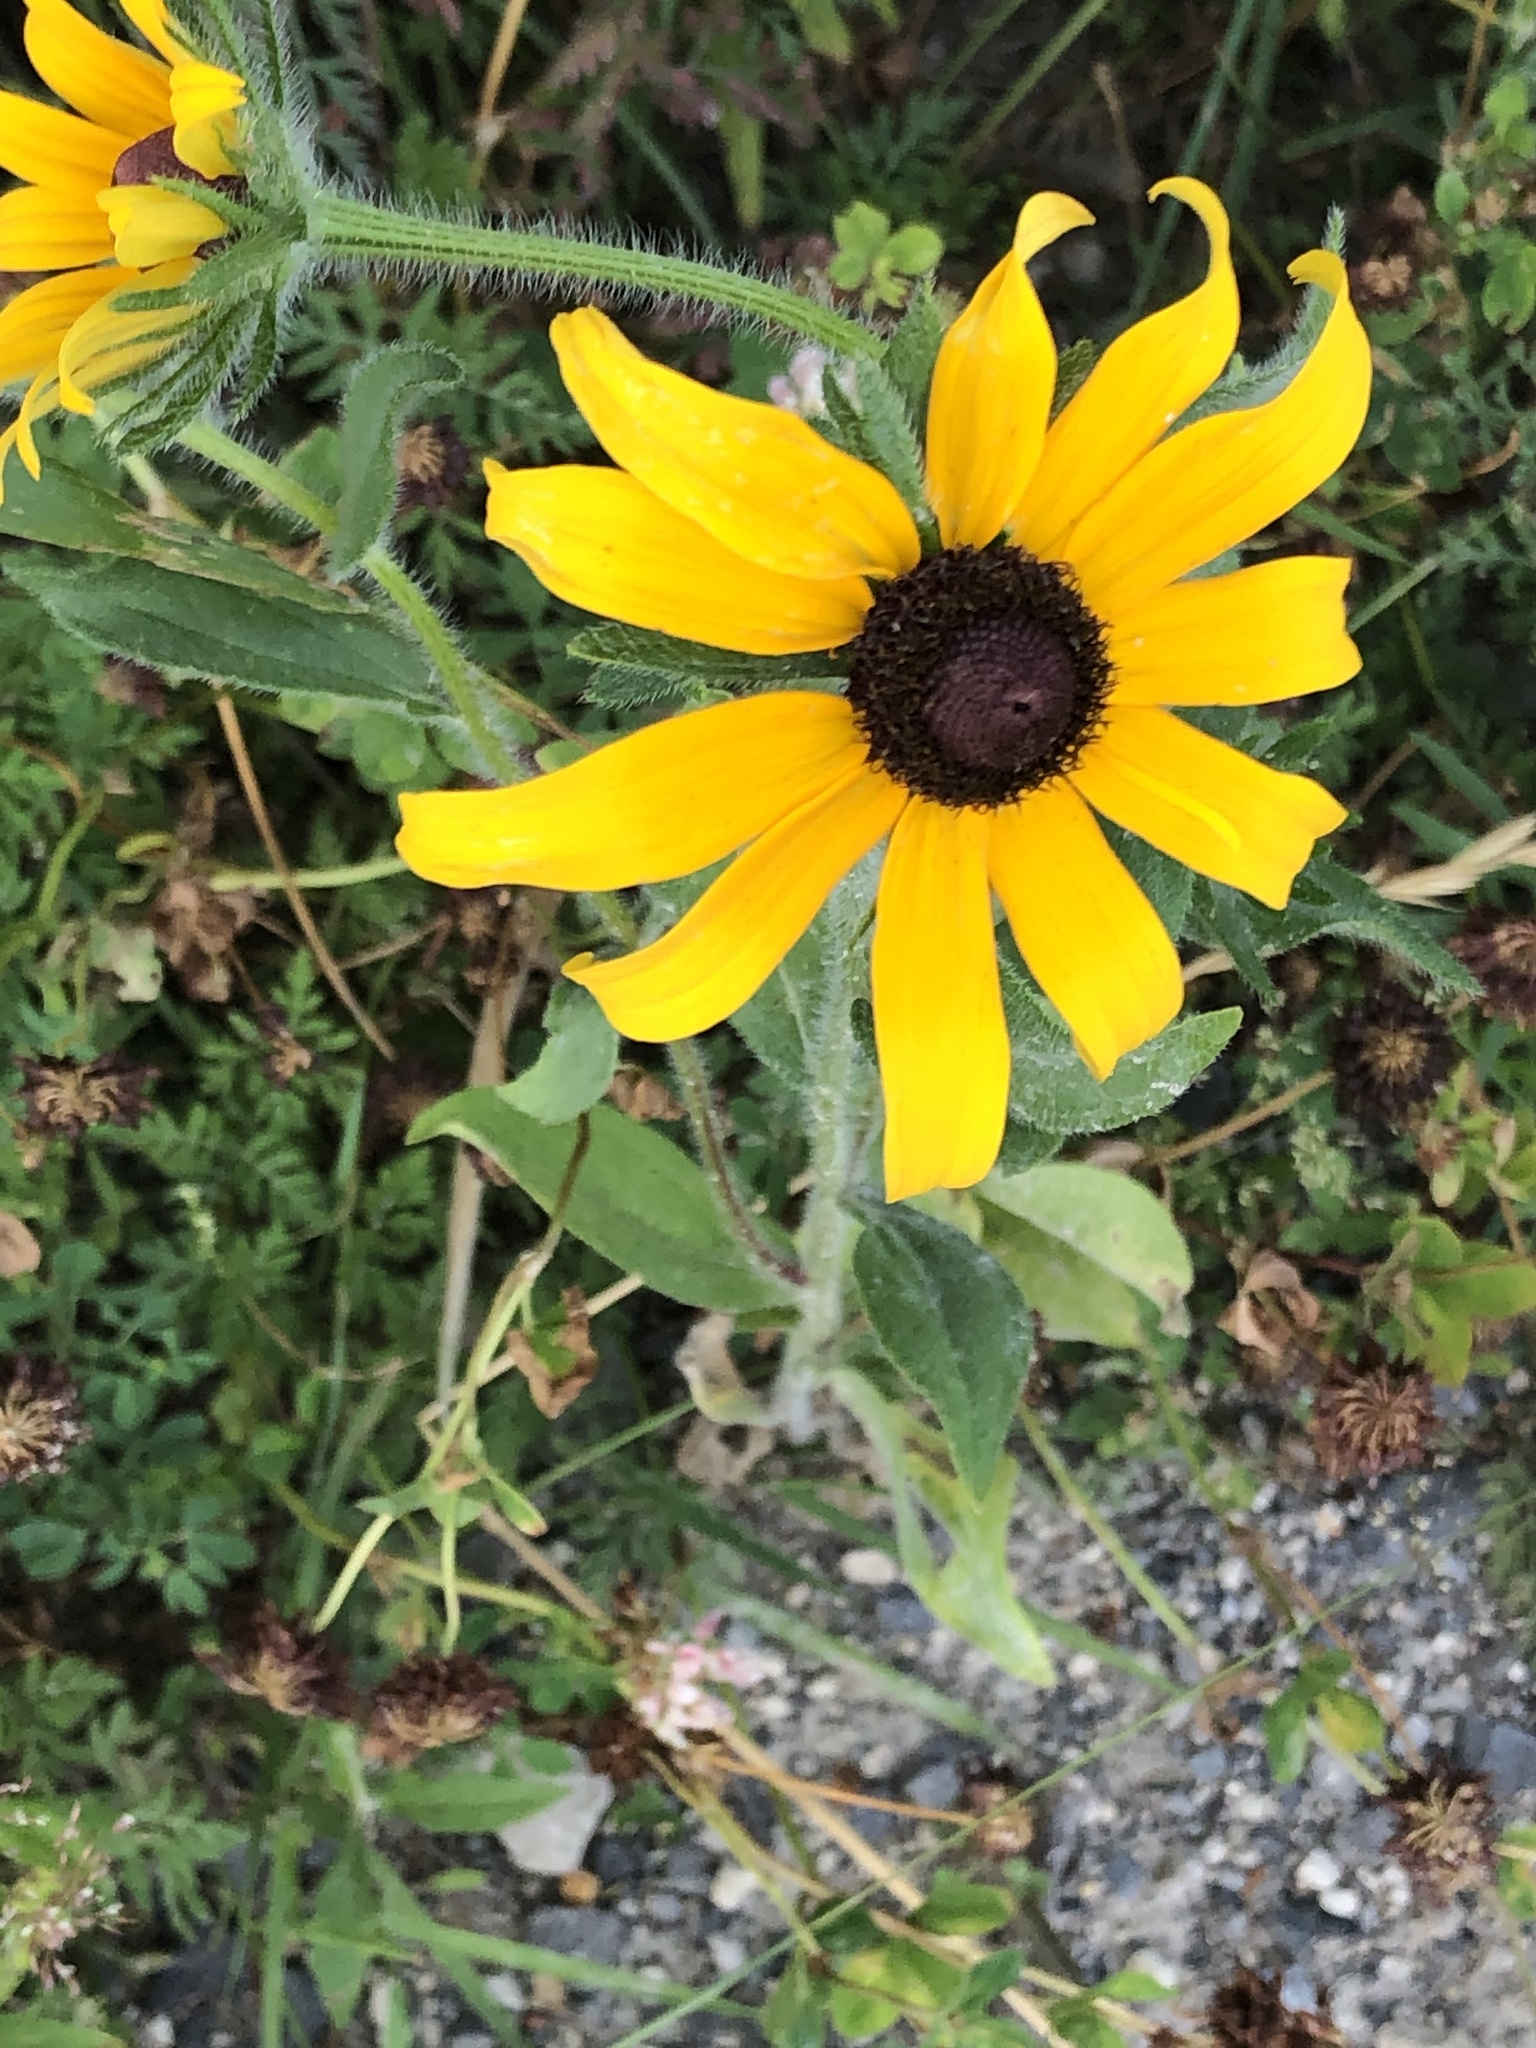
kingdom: Plantae
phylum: Tracheophyta
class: Magnoliopsida
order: Asterales
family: Asteraceae
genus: Rudbeckia
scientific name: Rudbeckia hirta
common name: Black-eyed-susan
